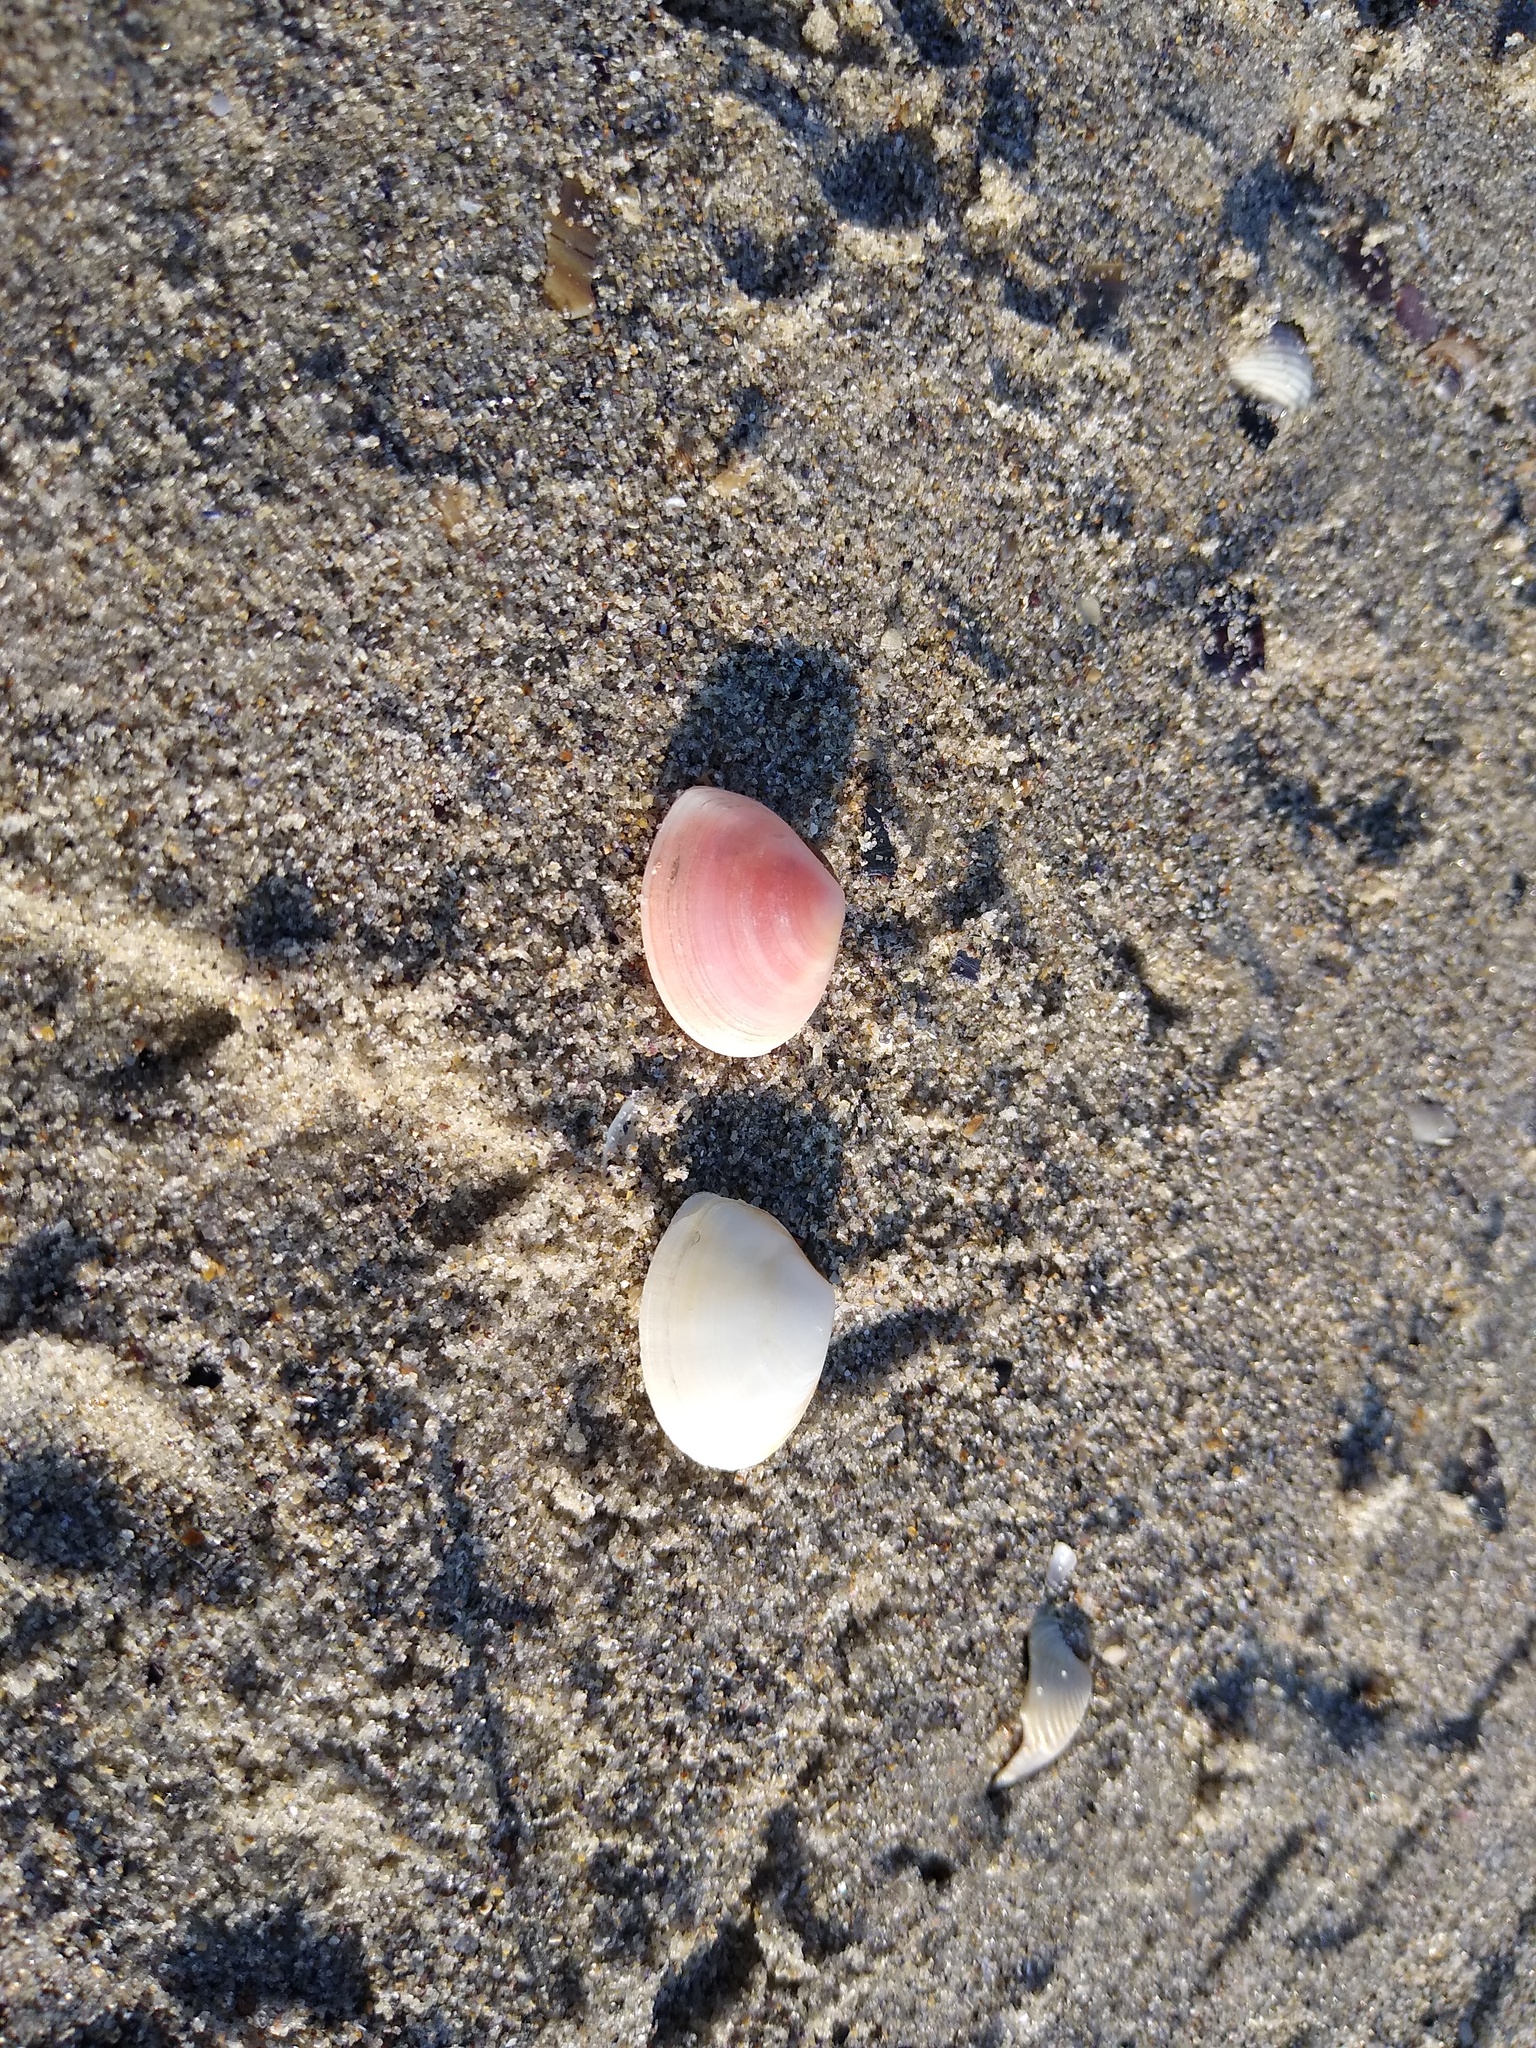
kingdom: Animalia
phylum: Mollusca
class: Bivalvia
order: Cardiida
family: Tellinidae
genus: Macomangulus
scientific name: Macomangulus tenuis
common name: Thin tellin
